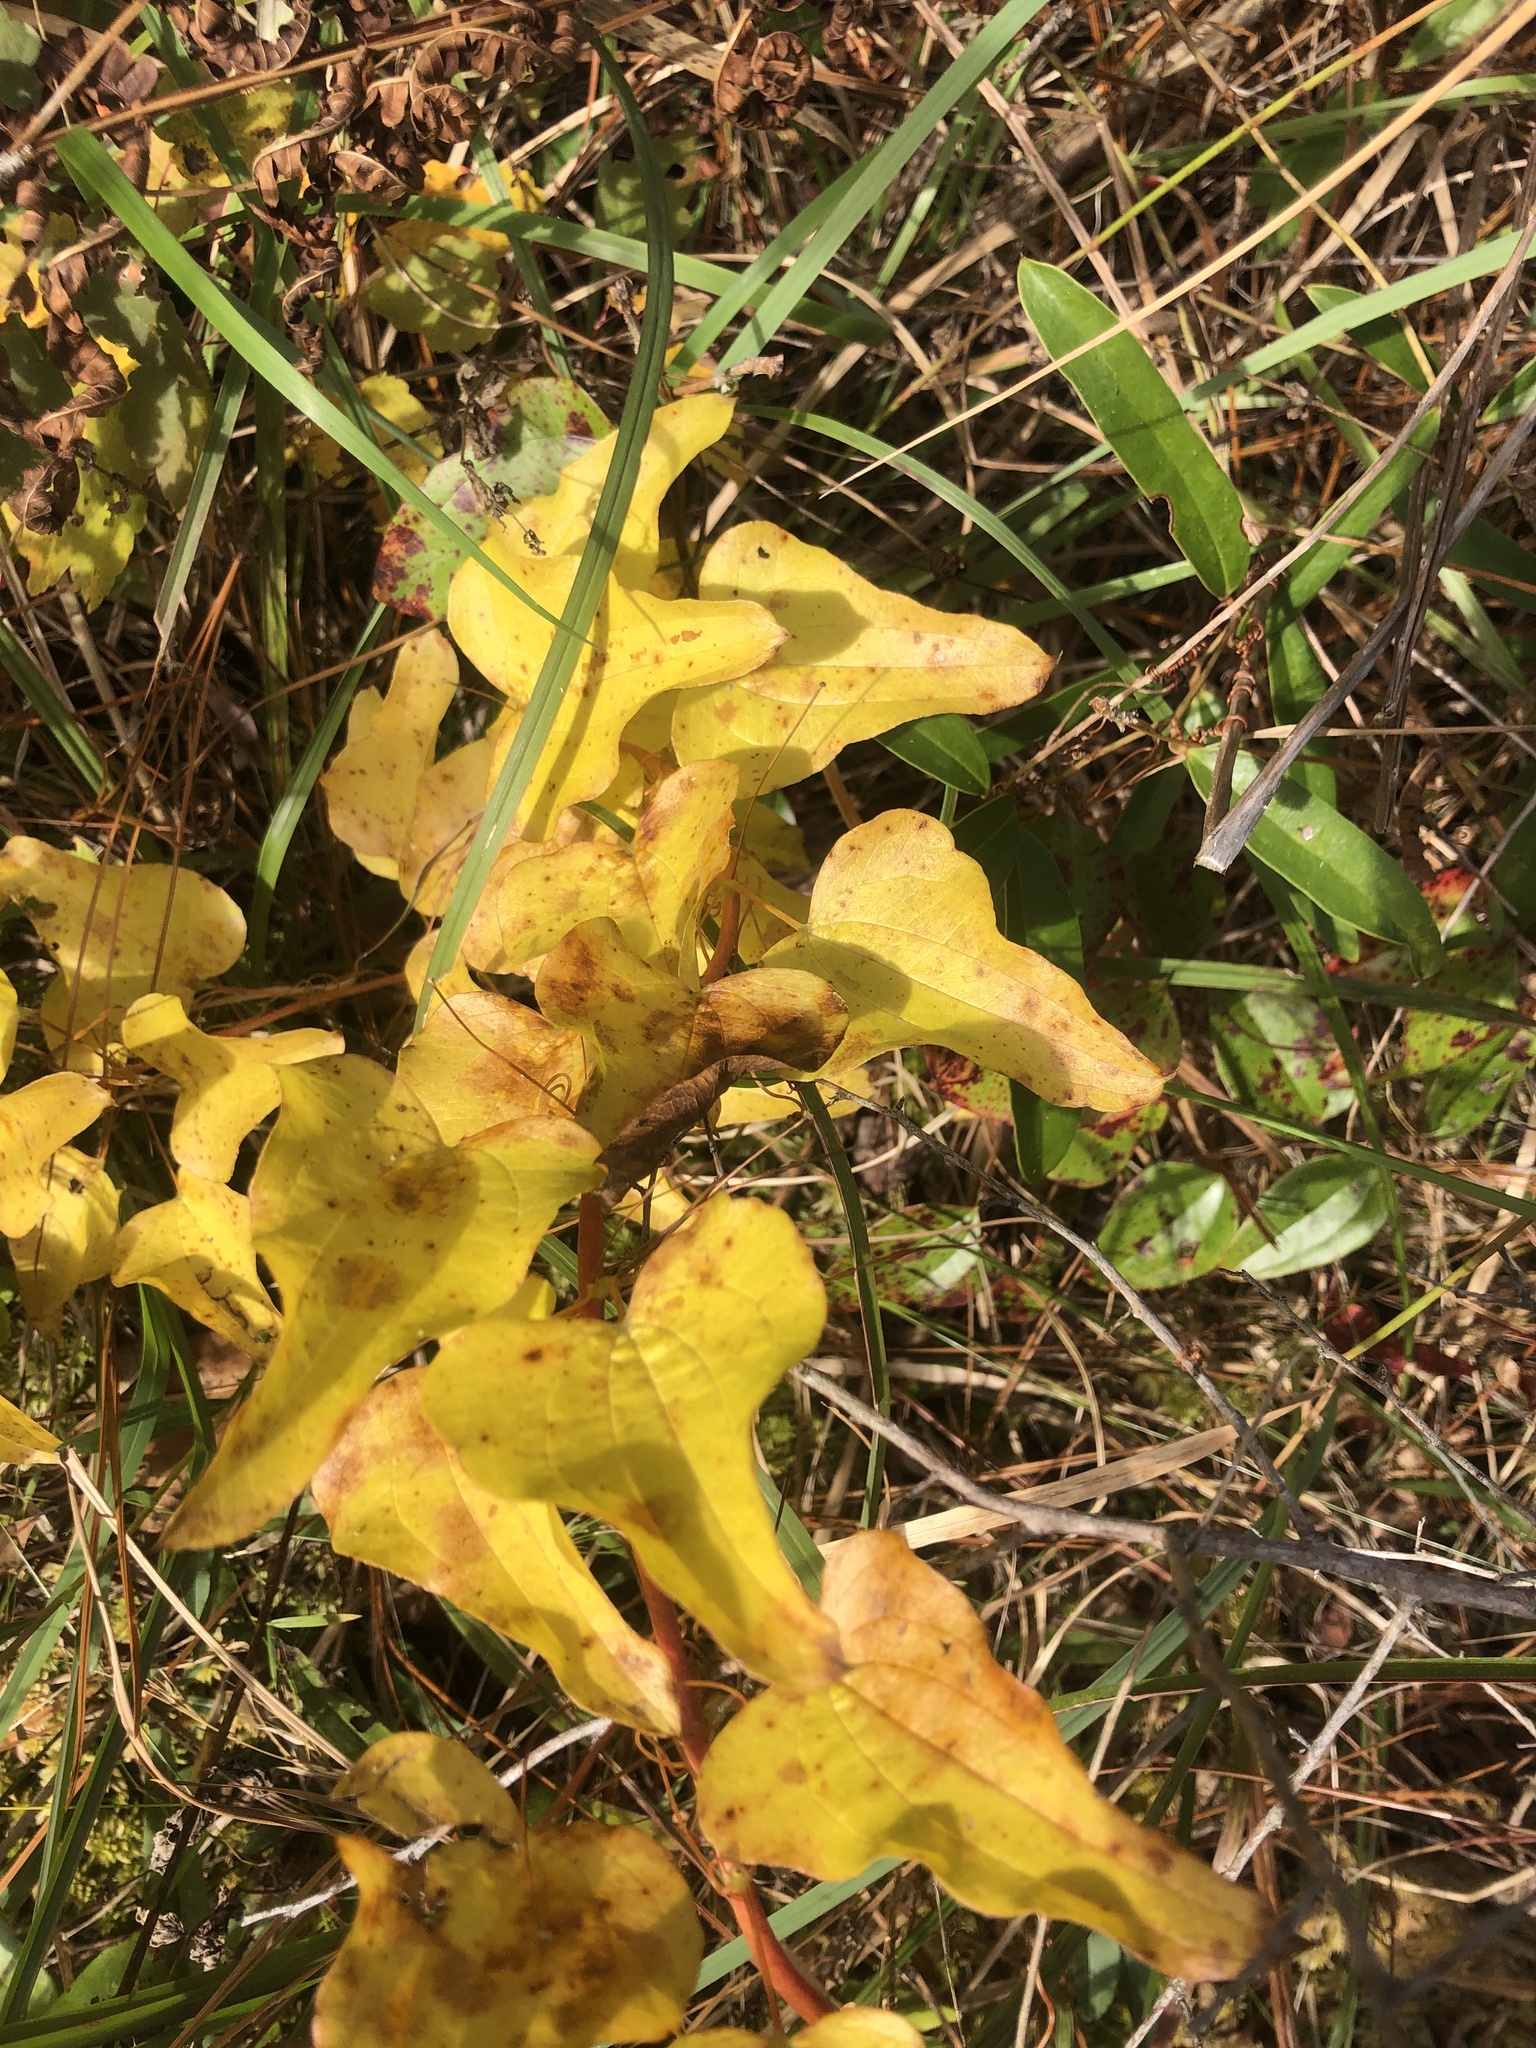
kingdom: Plantae
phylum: Tracheophyta
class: Liliopsida
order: Liliales
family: Smilacaceae
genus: Smilax
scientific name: Smilax pseudochina
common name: False chinaroot
